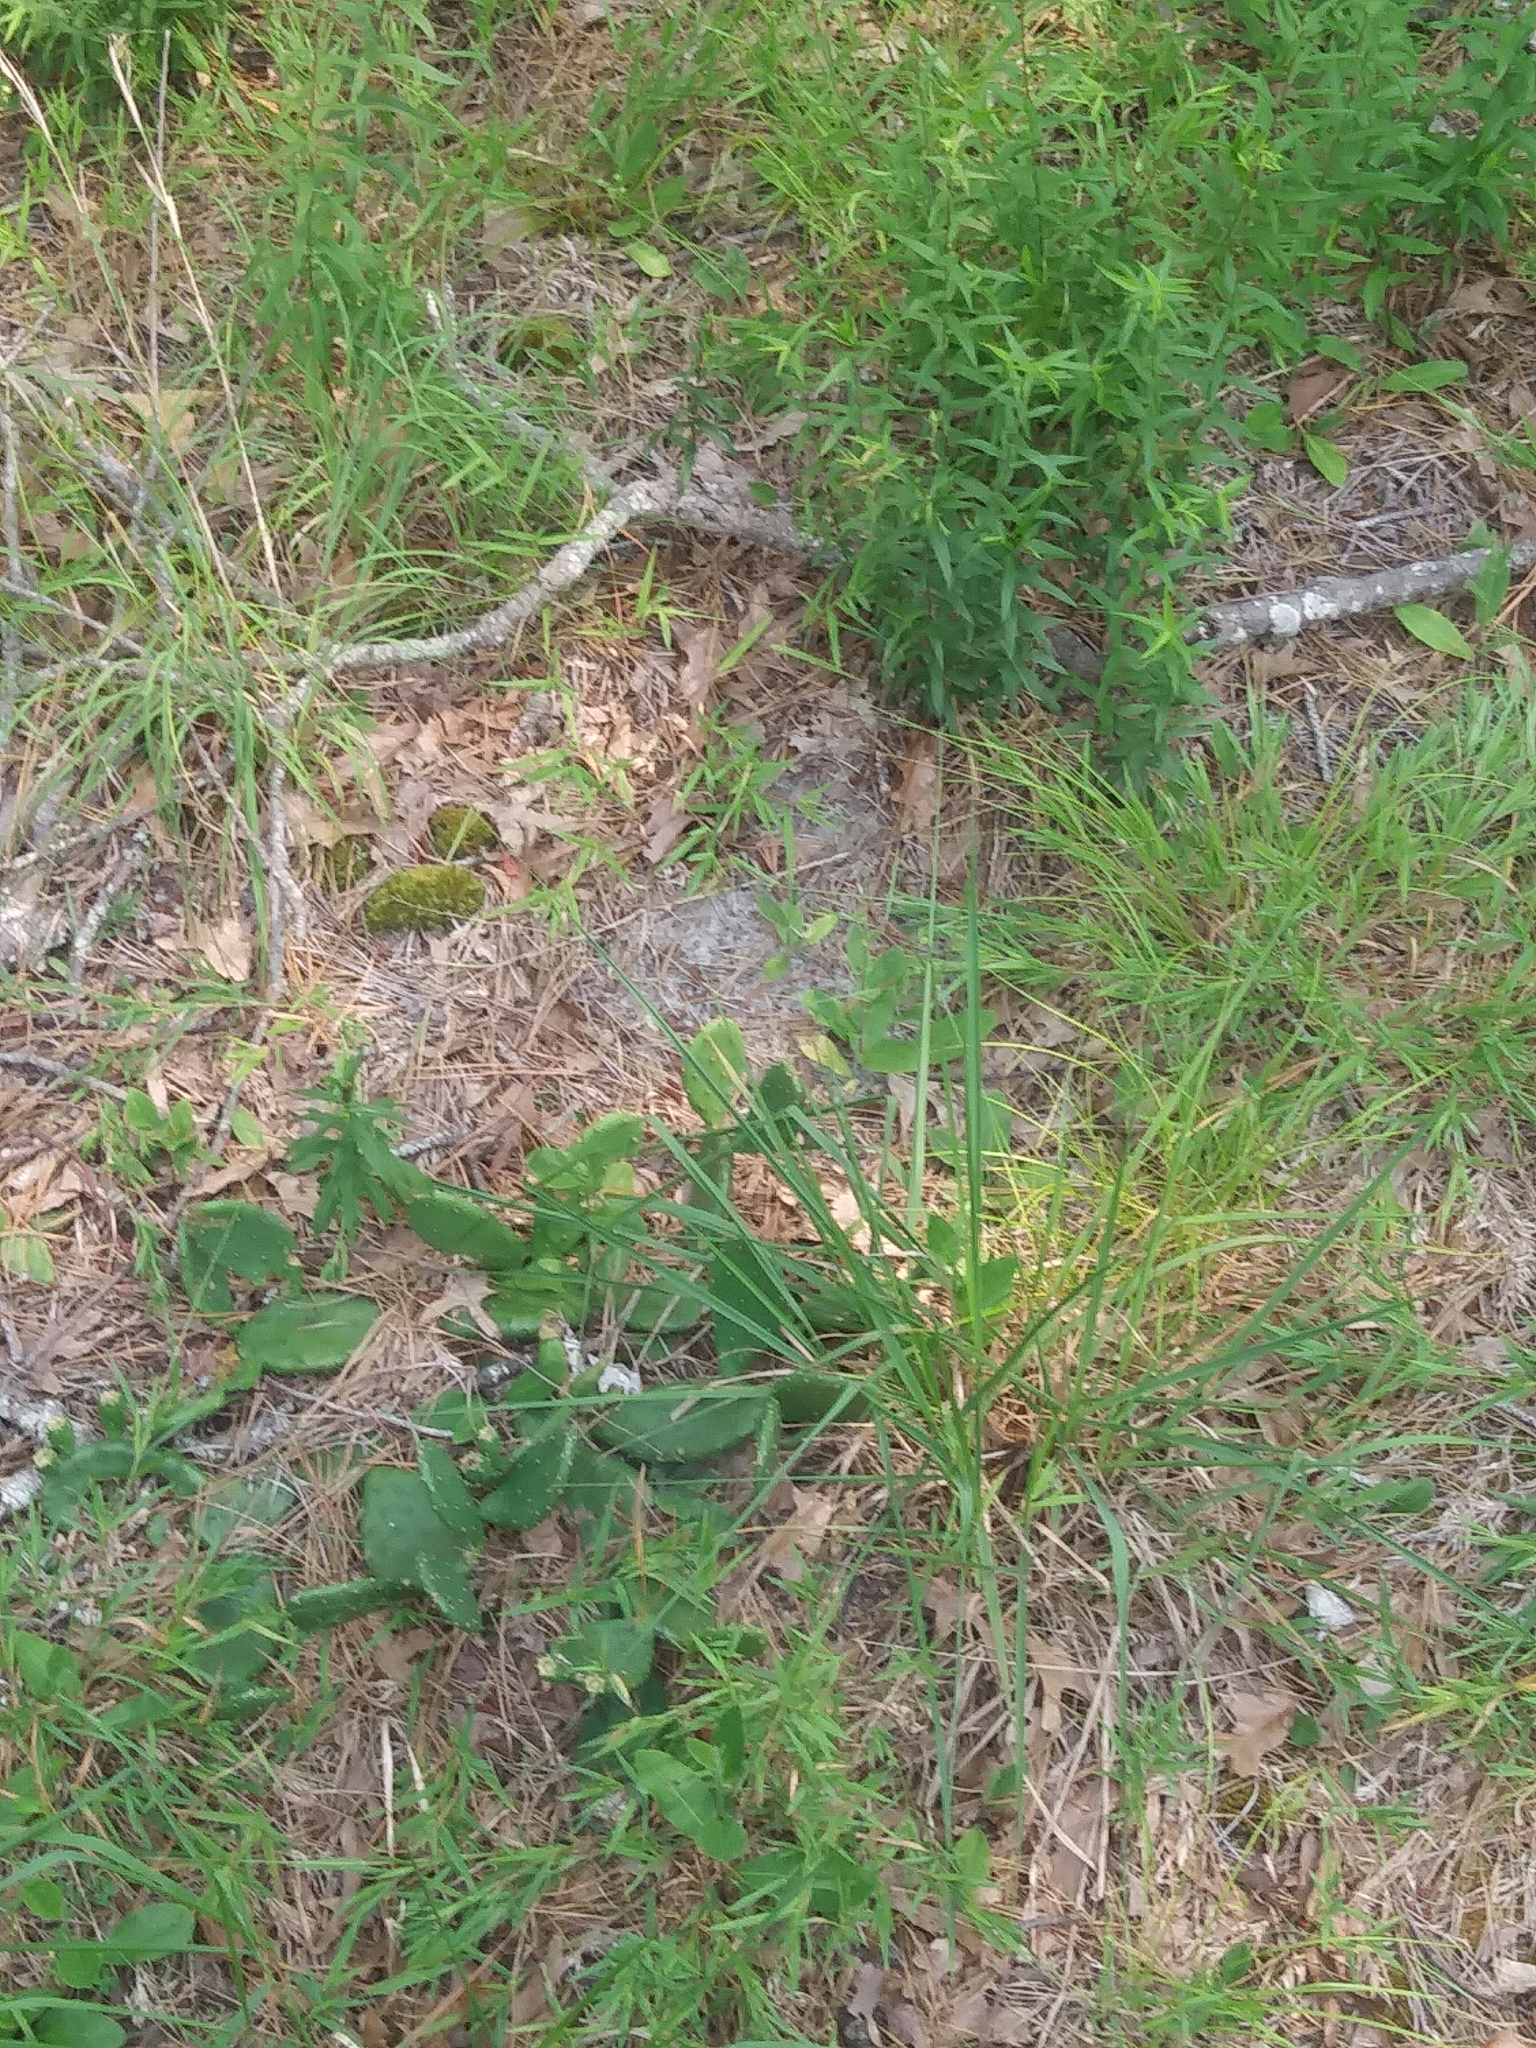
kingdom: Plantae
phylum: Tracheophyta
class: Magnoliopsida
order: Caryophyllales
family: Cactaceae
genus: Opuntia
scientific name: Opuntia humifusa
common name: Eastern prickly-pear
